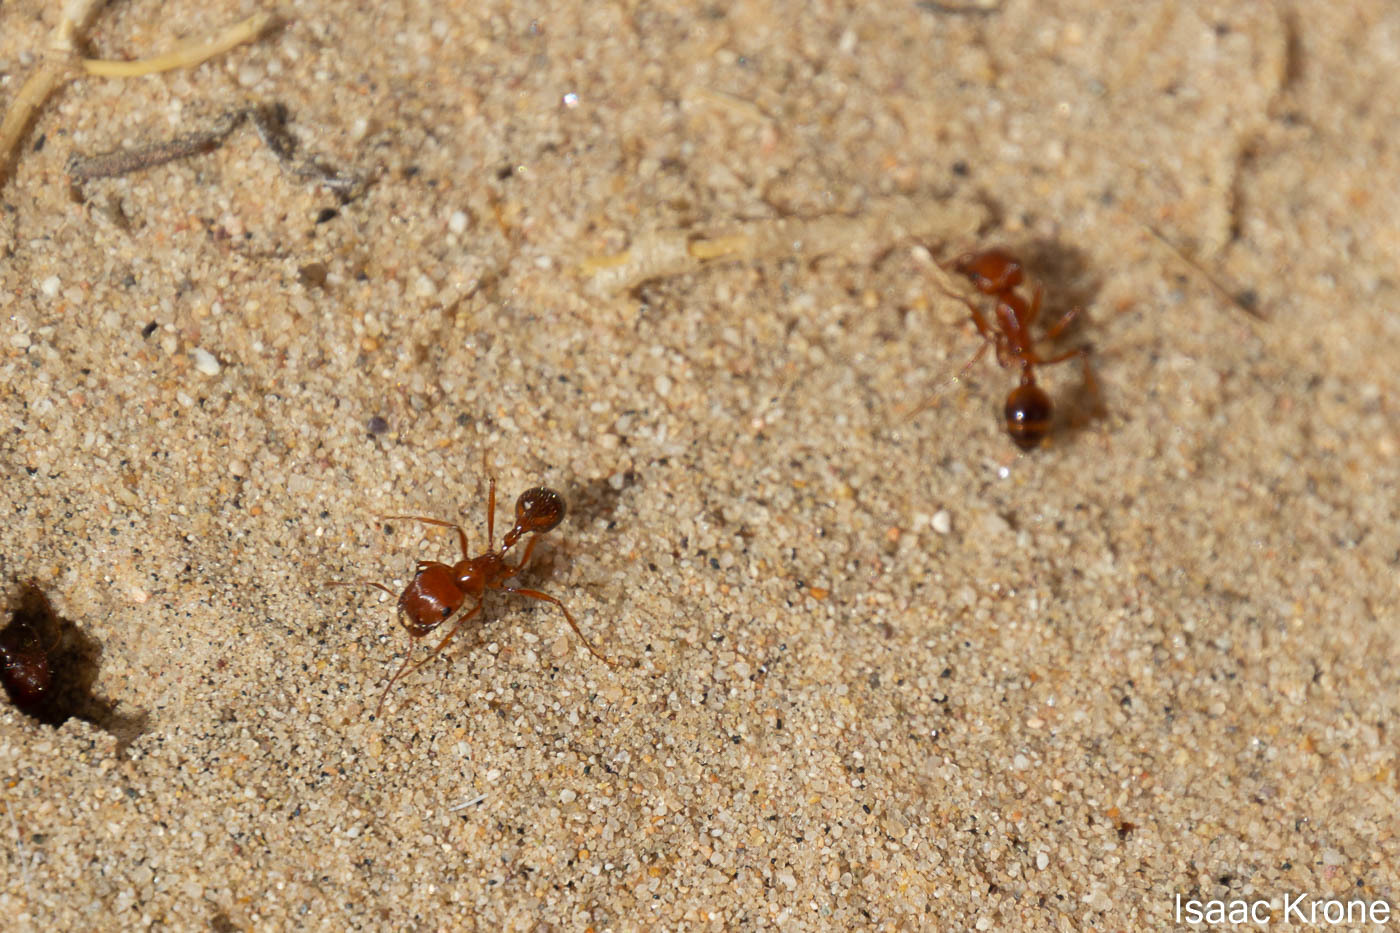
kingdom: Animalia
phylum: Arthropoda
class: Insecta
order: Hymenoptera
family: Formicidae
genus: Pogonomyrmex
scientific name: Pogonomyrmex californicus
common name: California harvester ant
